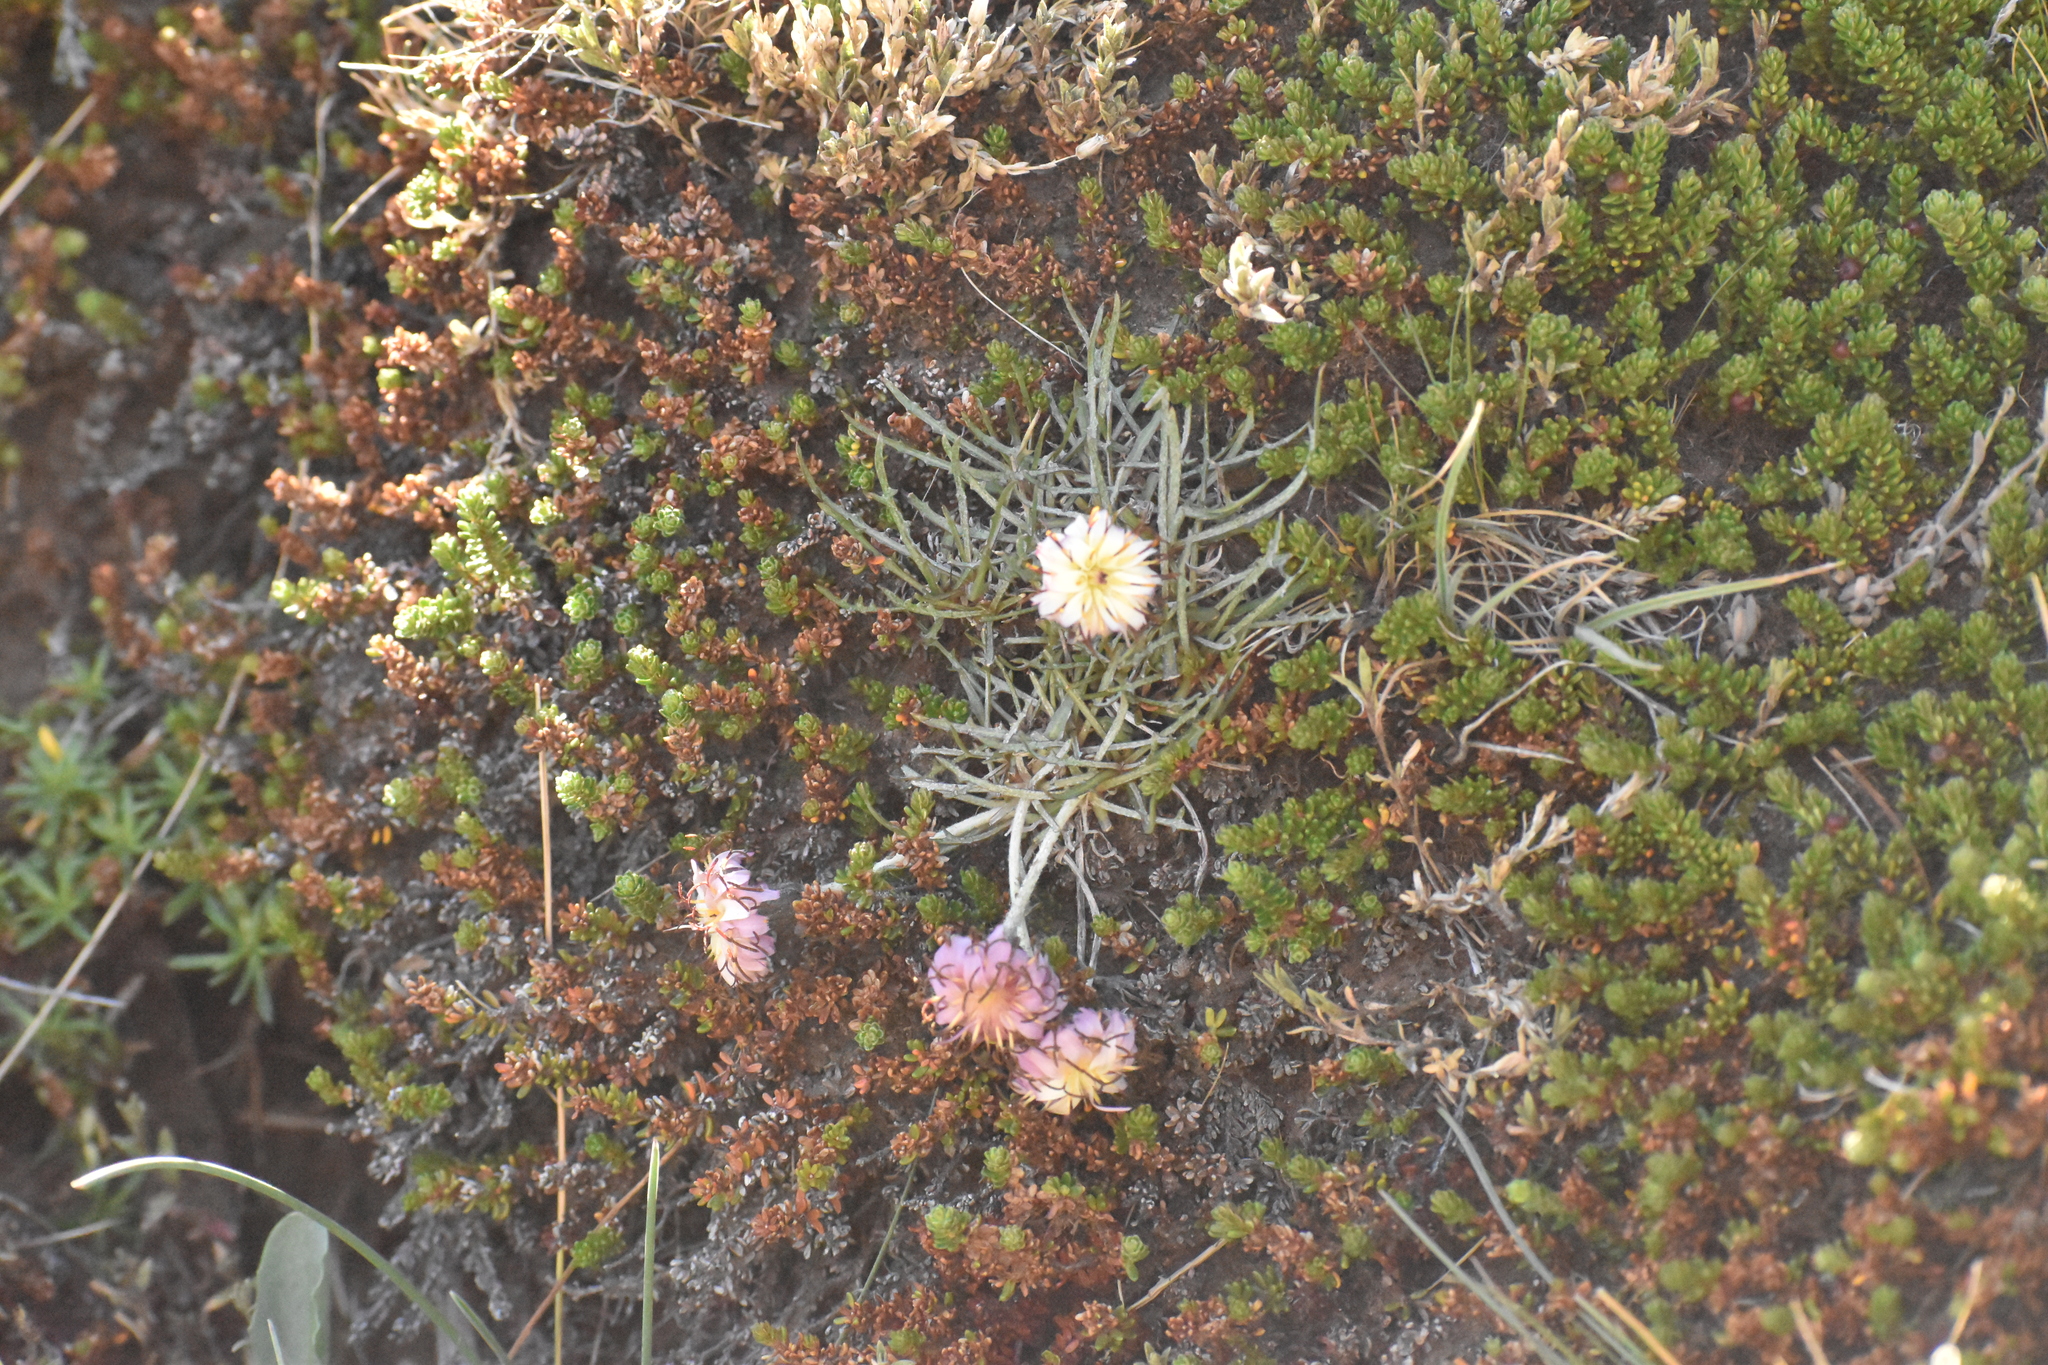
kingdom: Plantae
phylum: Tracheophyta
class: Magnoliopsida
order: Asterales
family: Asteraceae
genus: Hypochaeris
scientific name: Hypochaeris incana
